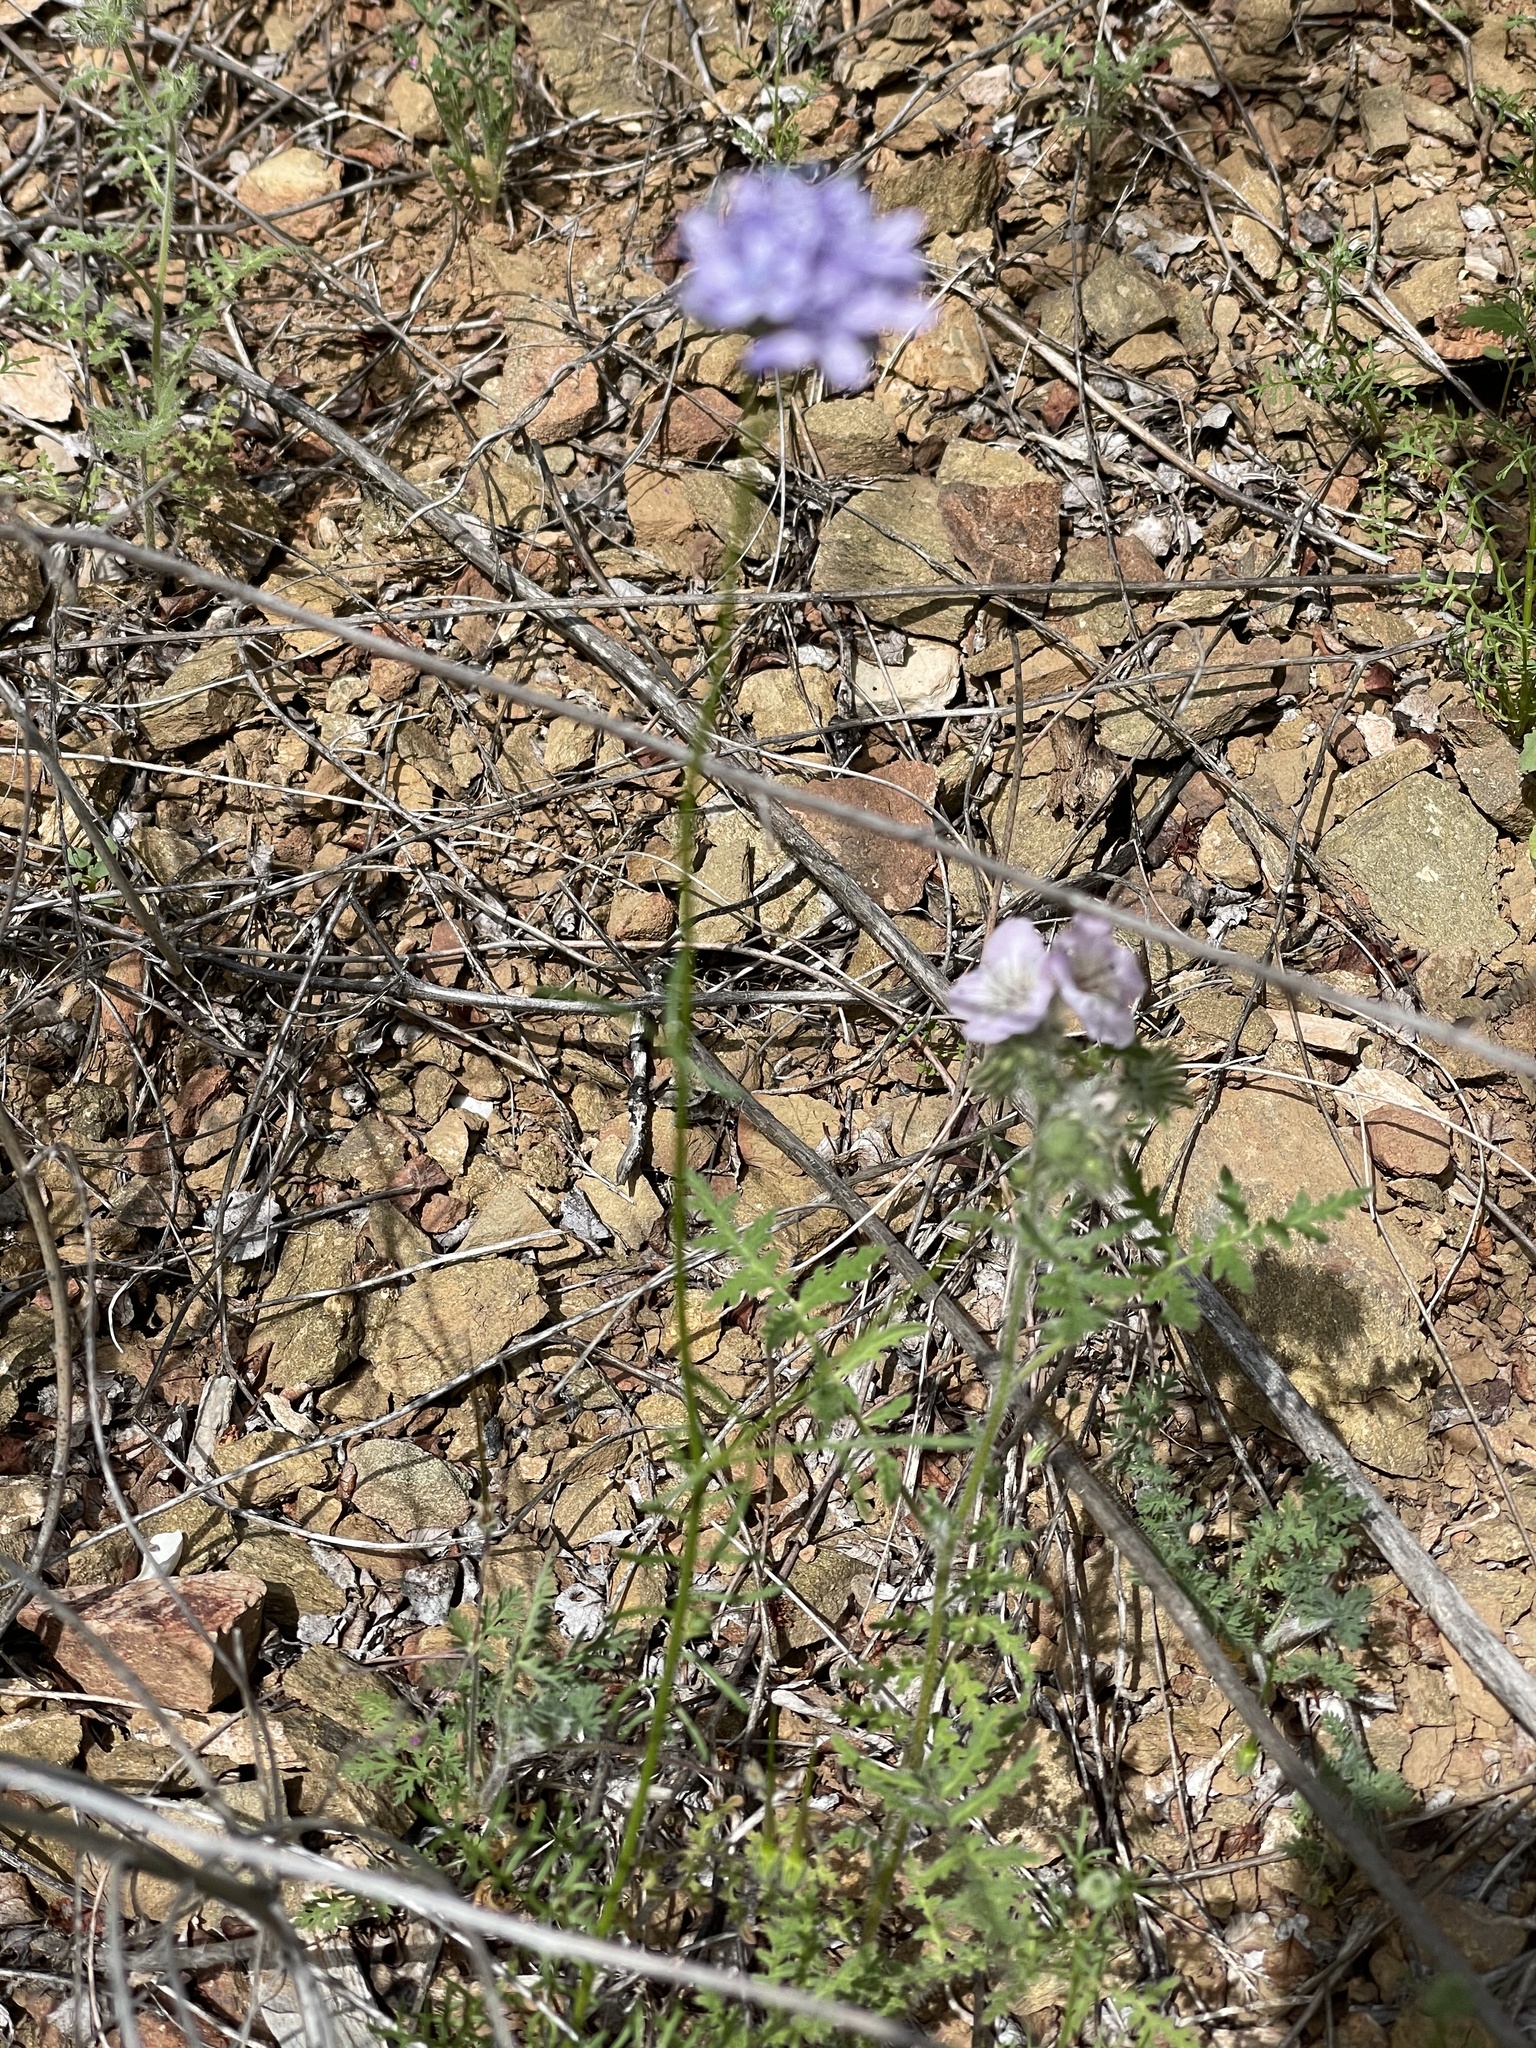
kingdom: Plantae
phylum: Tracheophyta
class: Magnoliopsida
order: Ericales
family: Polemoniaceae
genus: Gilia
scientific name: Gilia capitata
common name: Bluehead gilia
